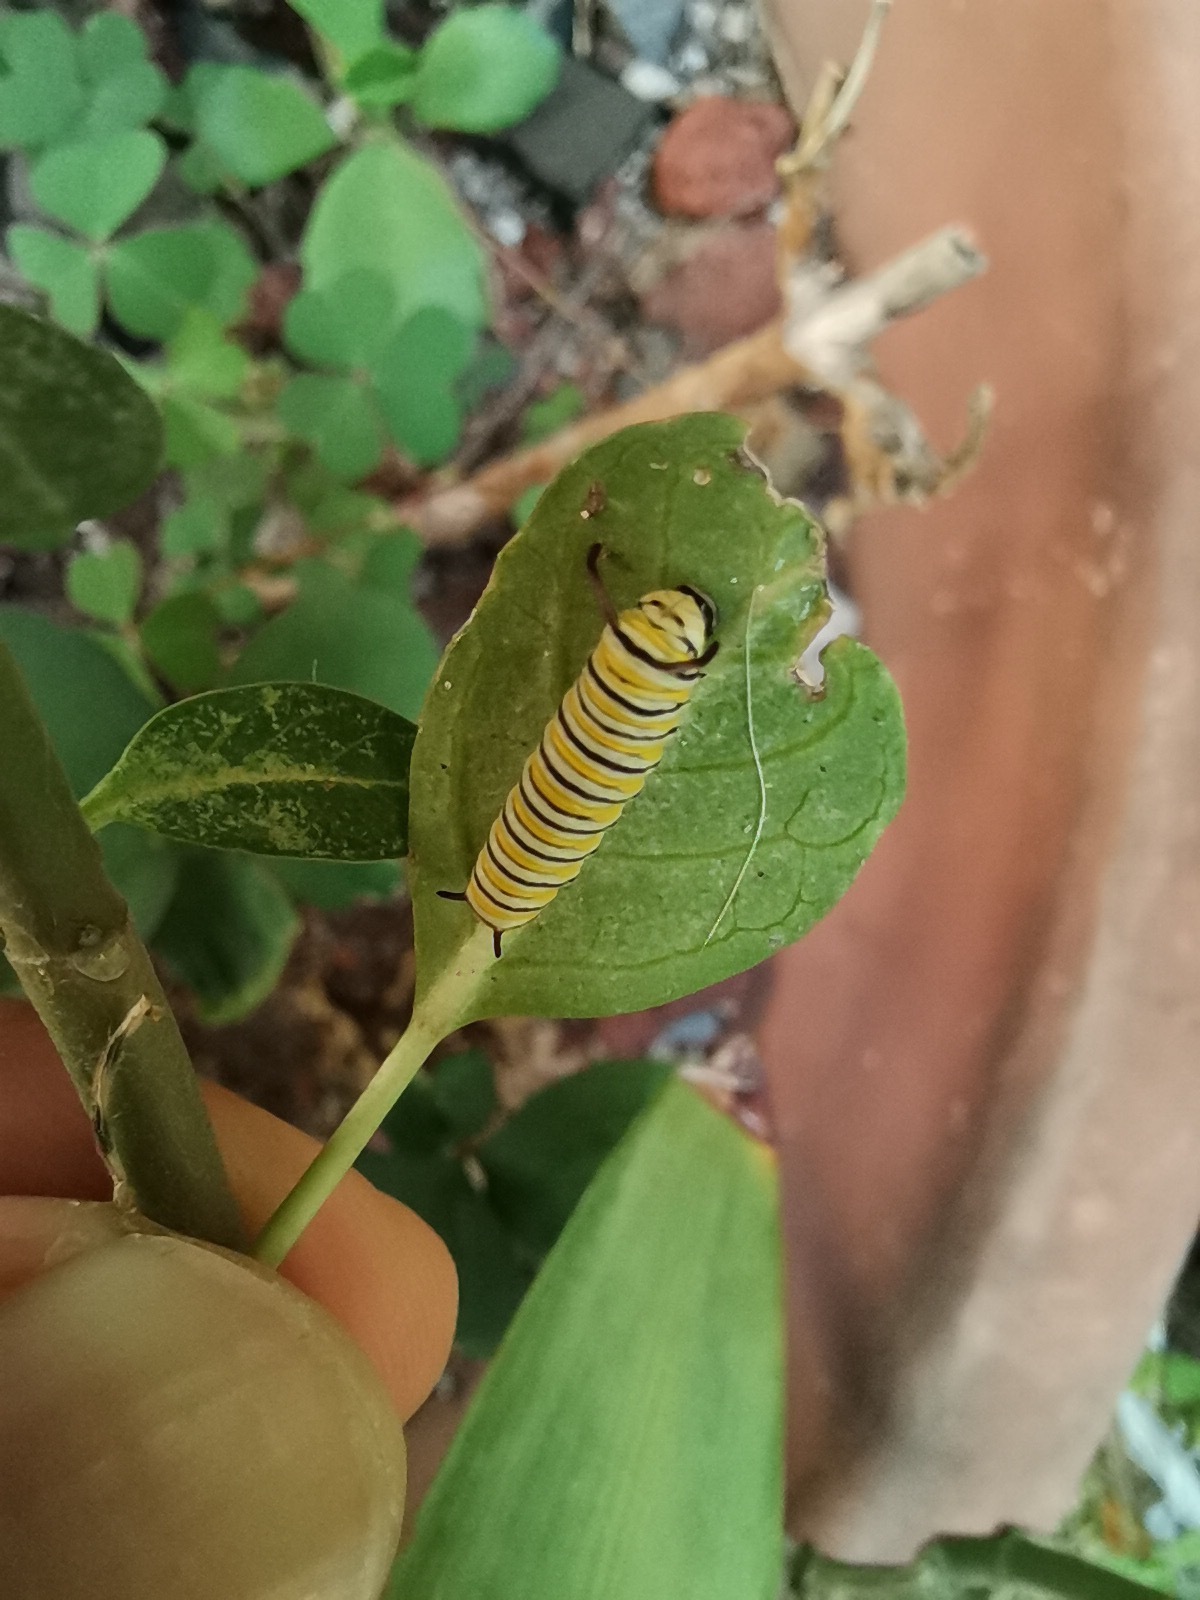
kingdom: Animalia
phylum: Arthropoda
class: Insecta
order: Lepidoptera
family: Nymphalidae
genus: Danaus
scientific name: Danaus plexippus
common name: Monarch
